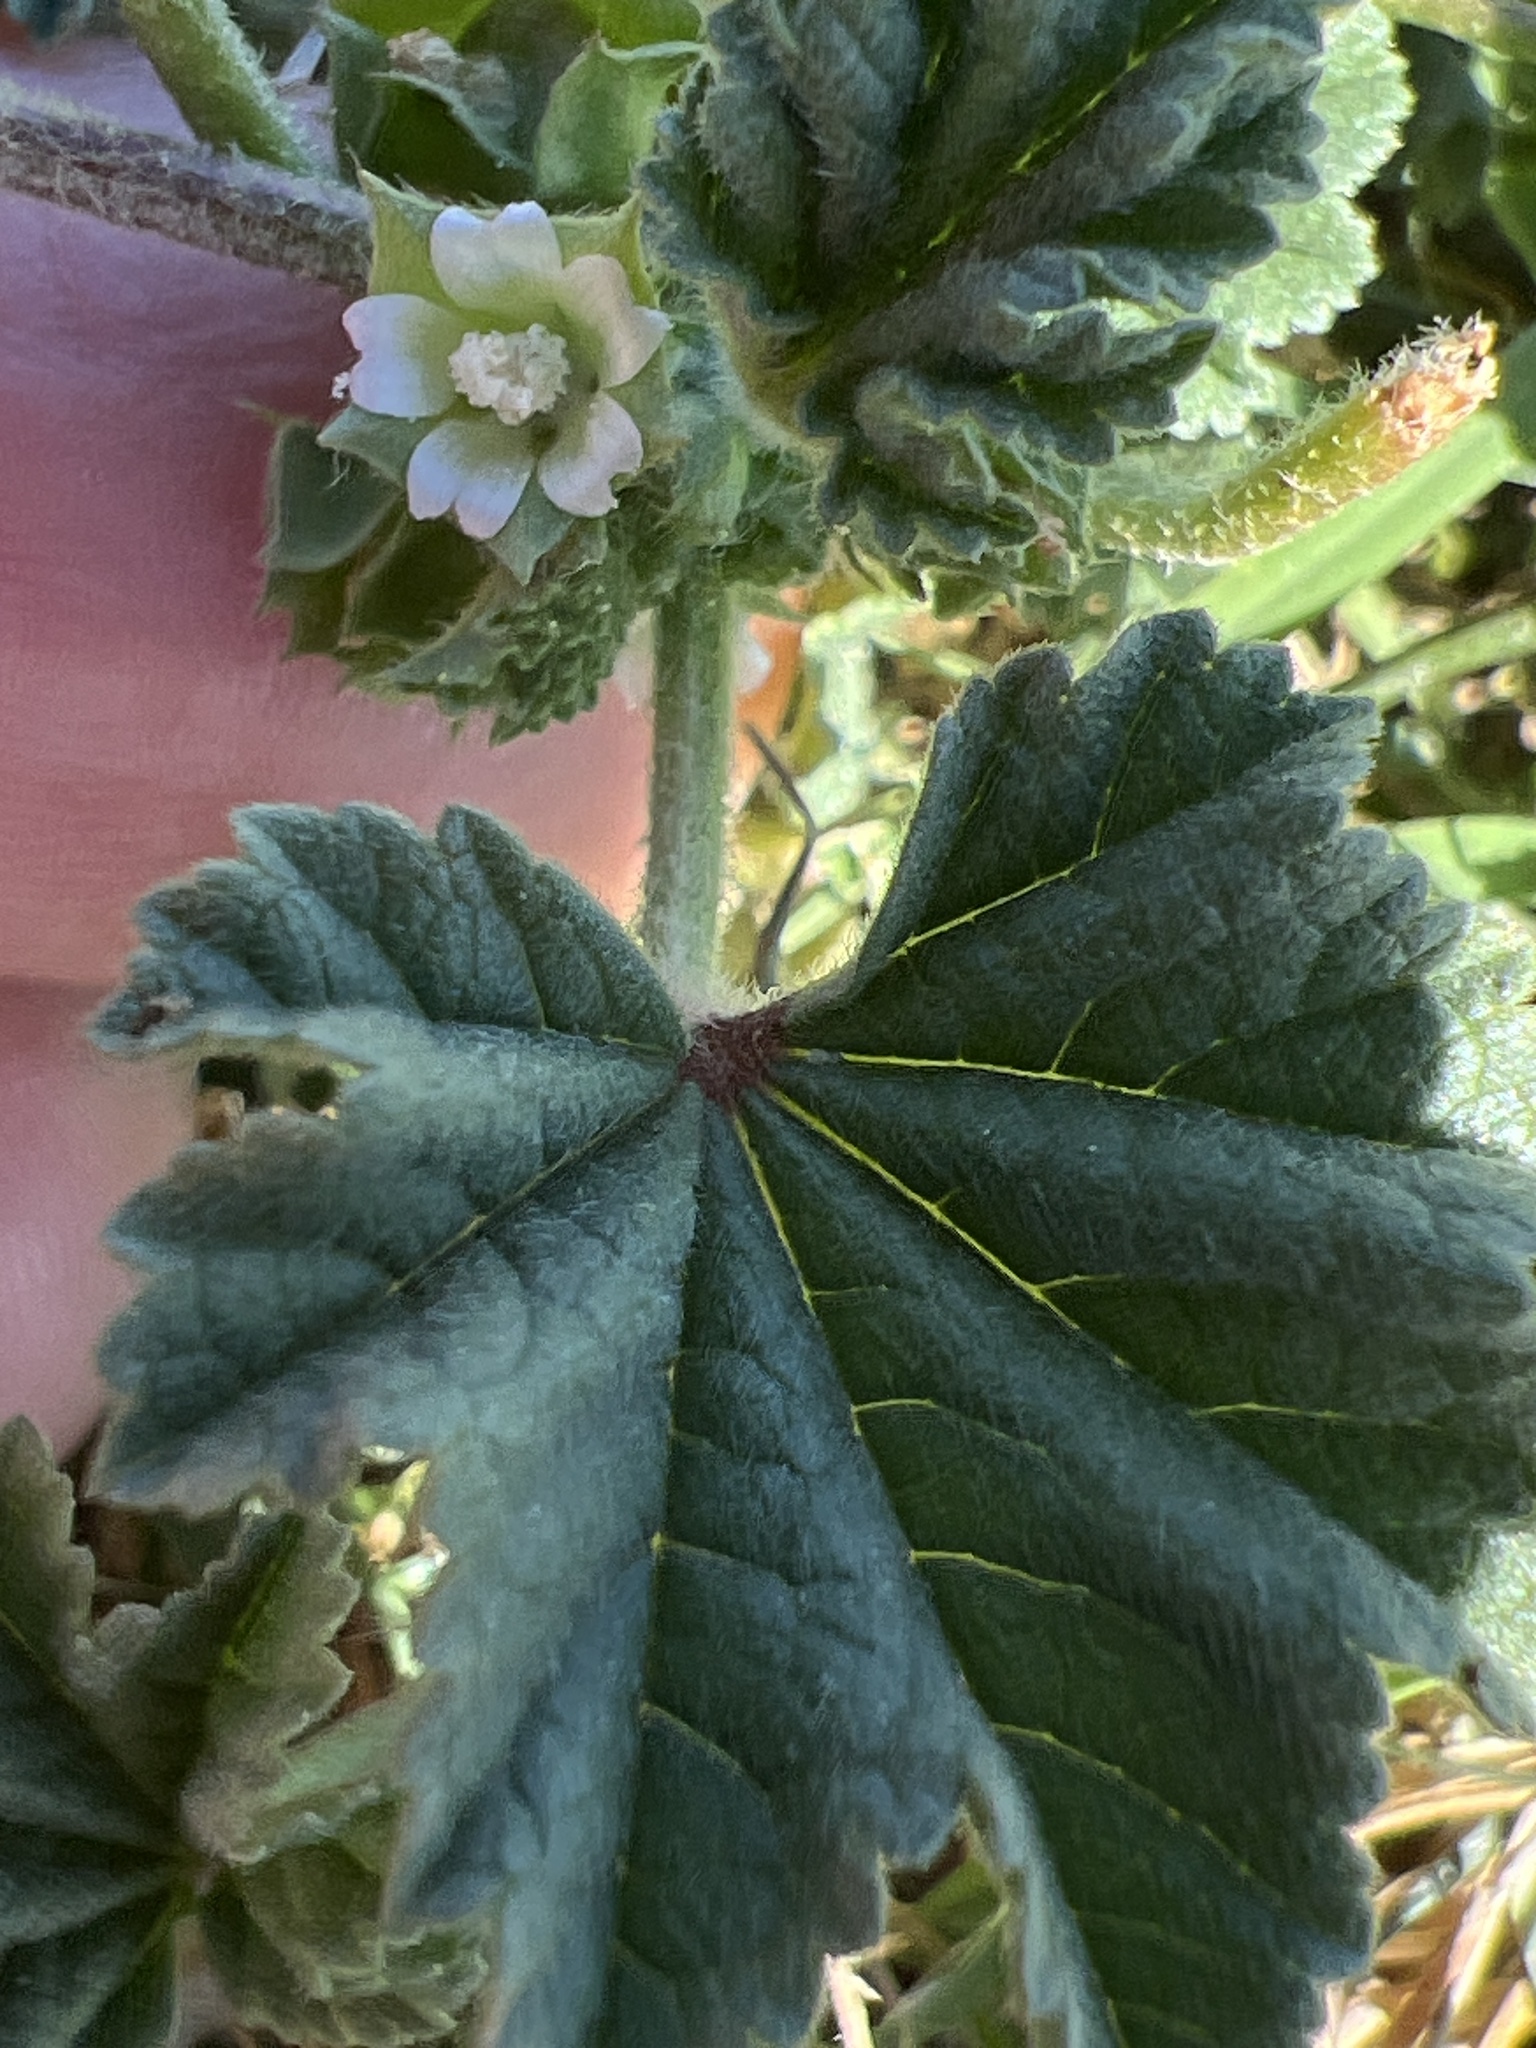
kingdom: Plantae
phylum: Tracheophyta
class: Magnoliopsida
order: Malvales
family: Malvaceae
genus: Malva
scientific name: Malva parviflora
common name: Least mallow
